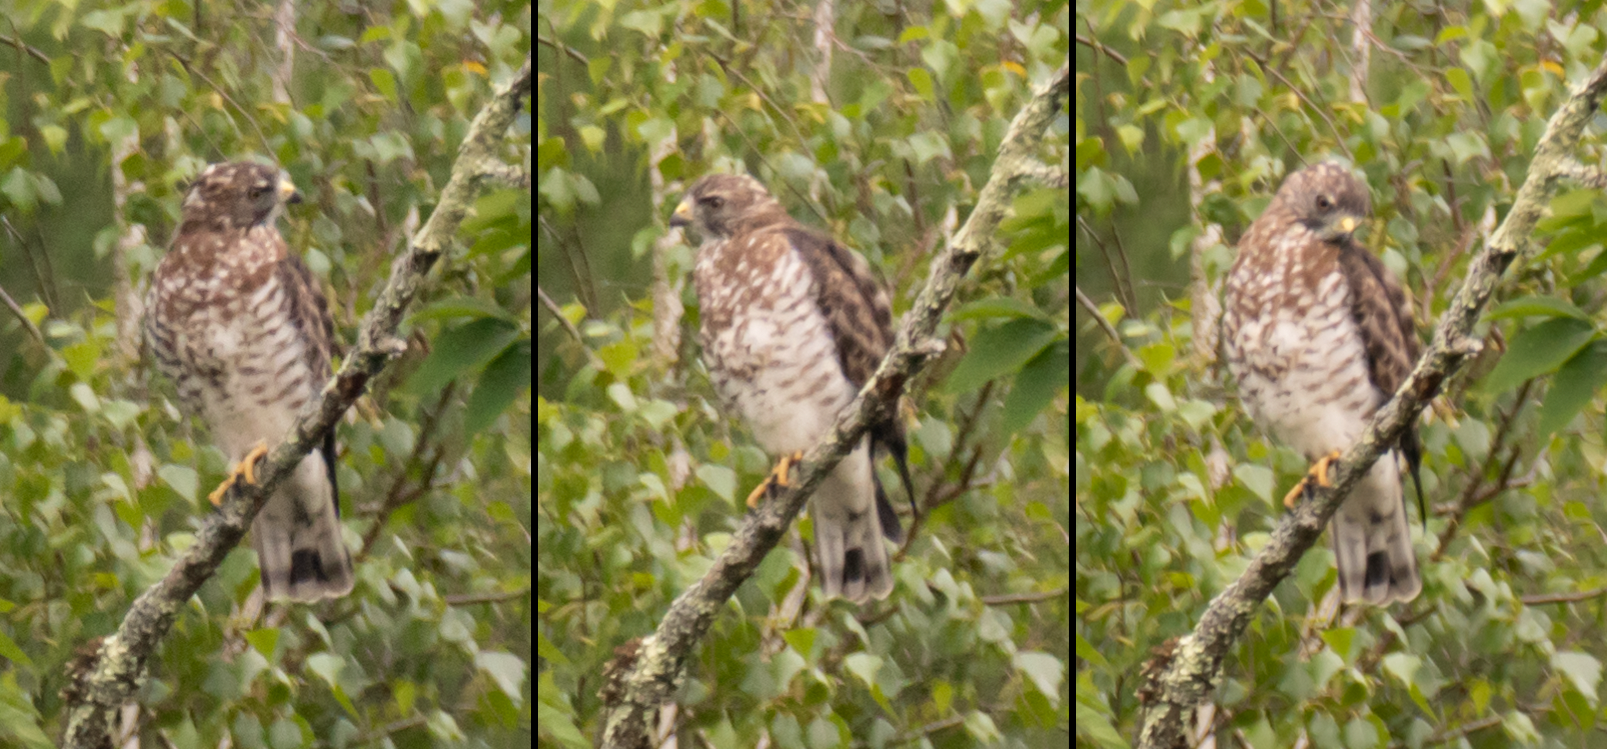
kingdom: Animalia
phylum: Chordata
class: Aves
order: Accipitriformes
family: Accipitridae
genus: Buteo
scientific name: Buteo platypterus
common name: Broad-winged hawk
